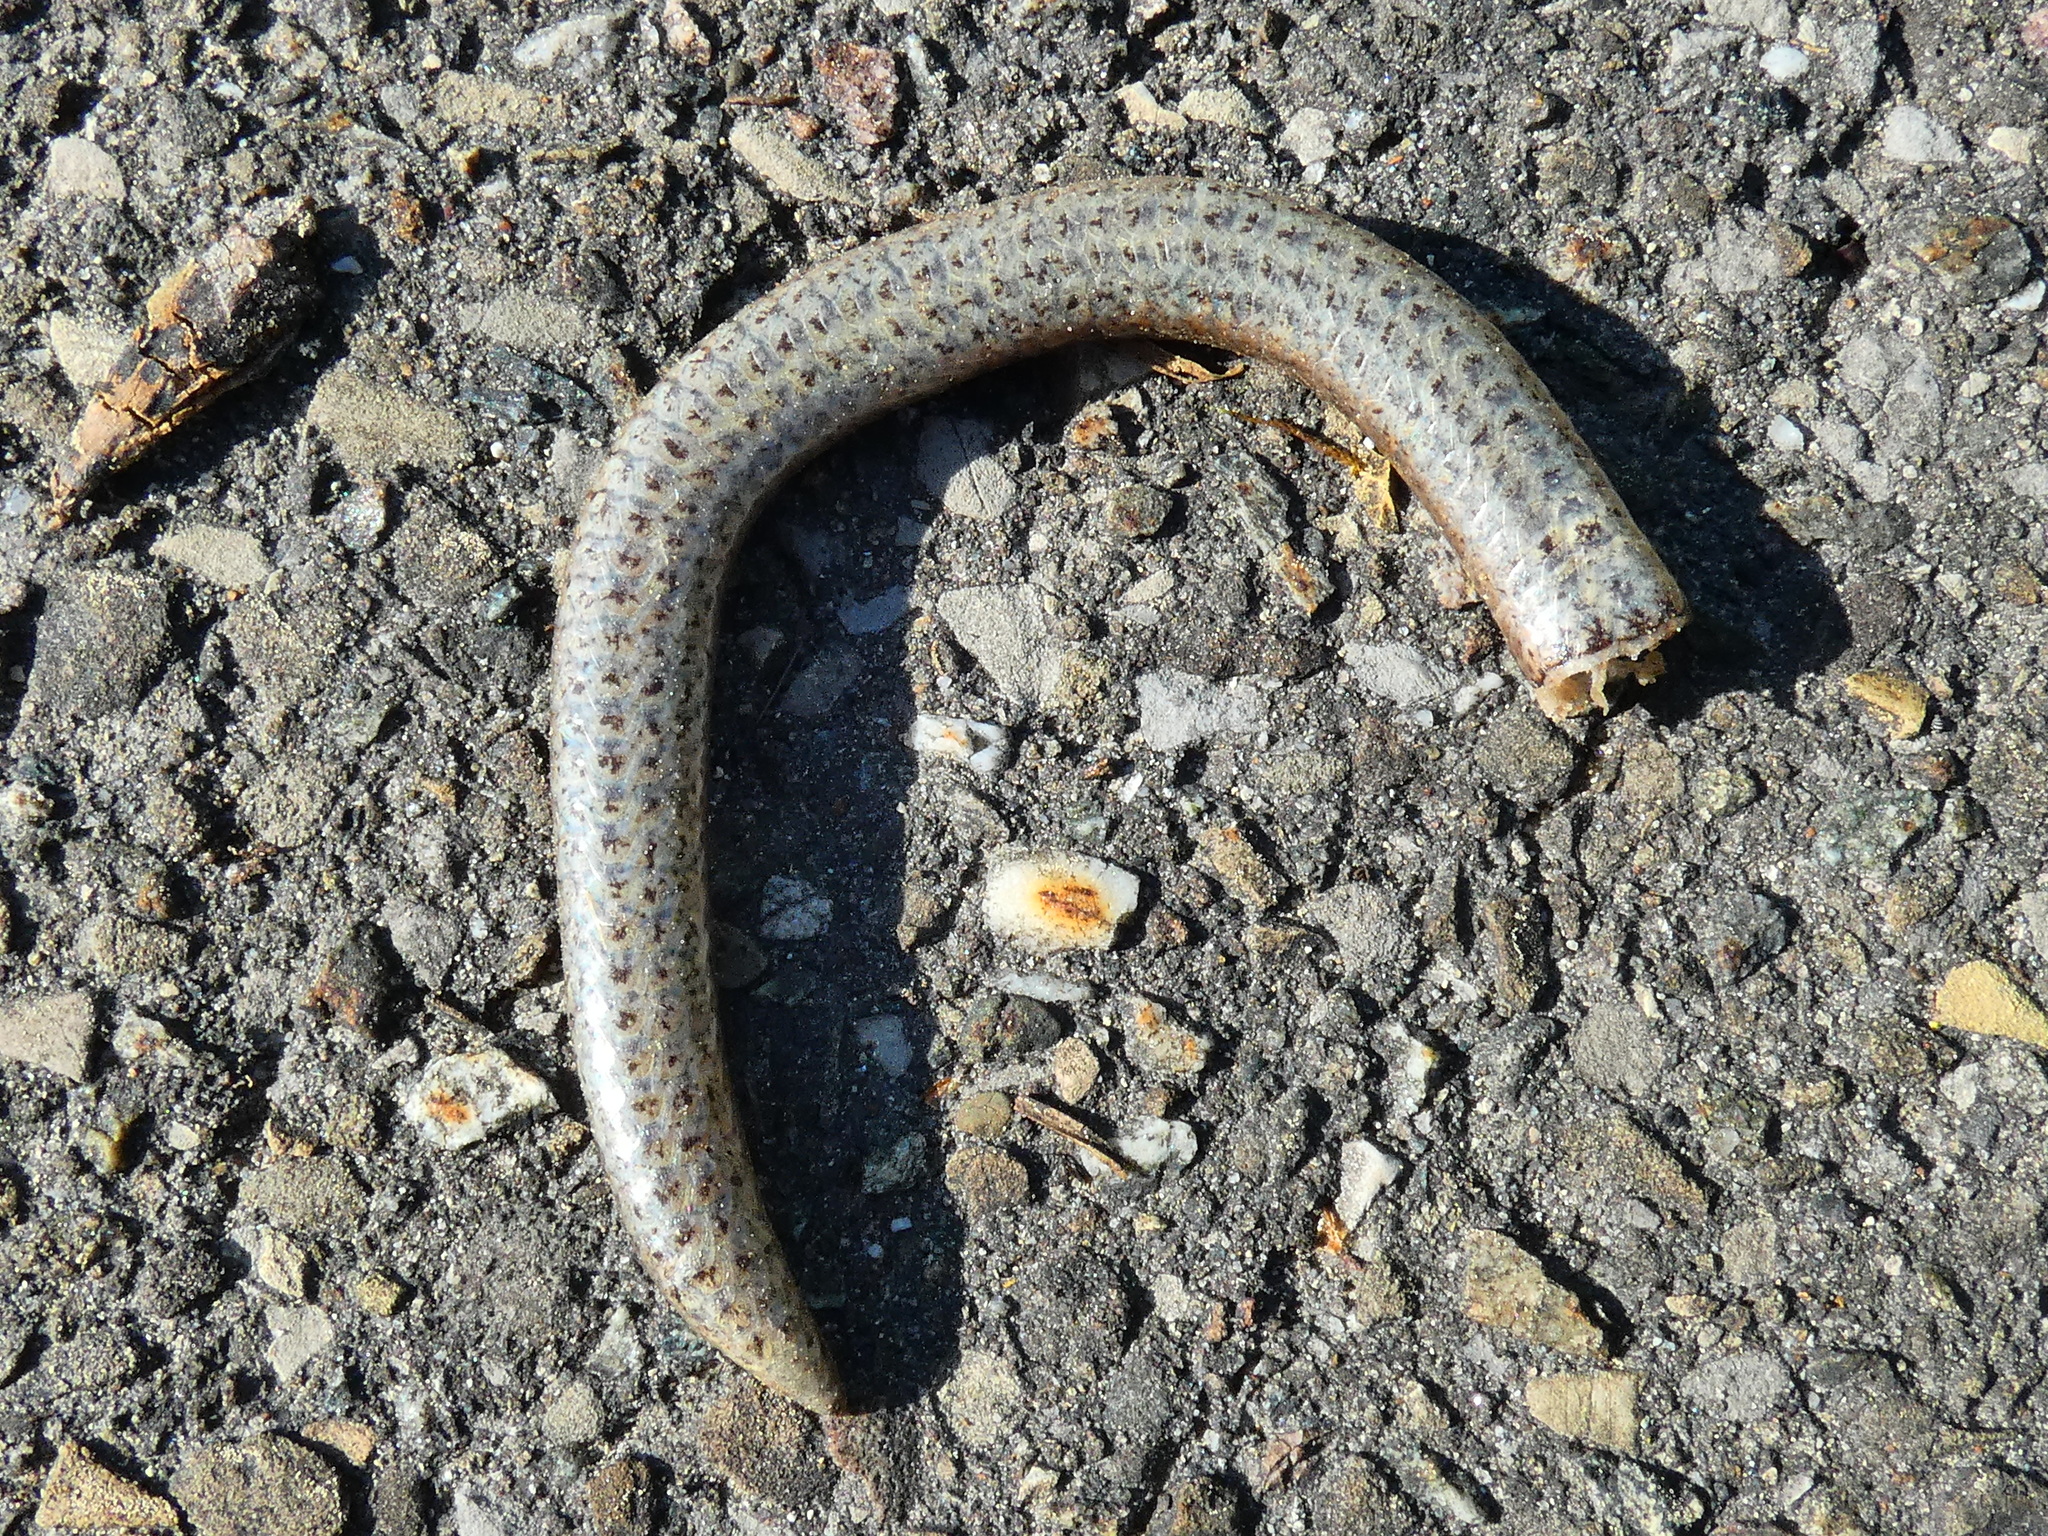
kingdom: Animalia
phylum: Chordata
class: Squamata
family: Anguidae
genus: Anguis
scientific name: Anguis fragilis
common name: Slow worm
